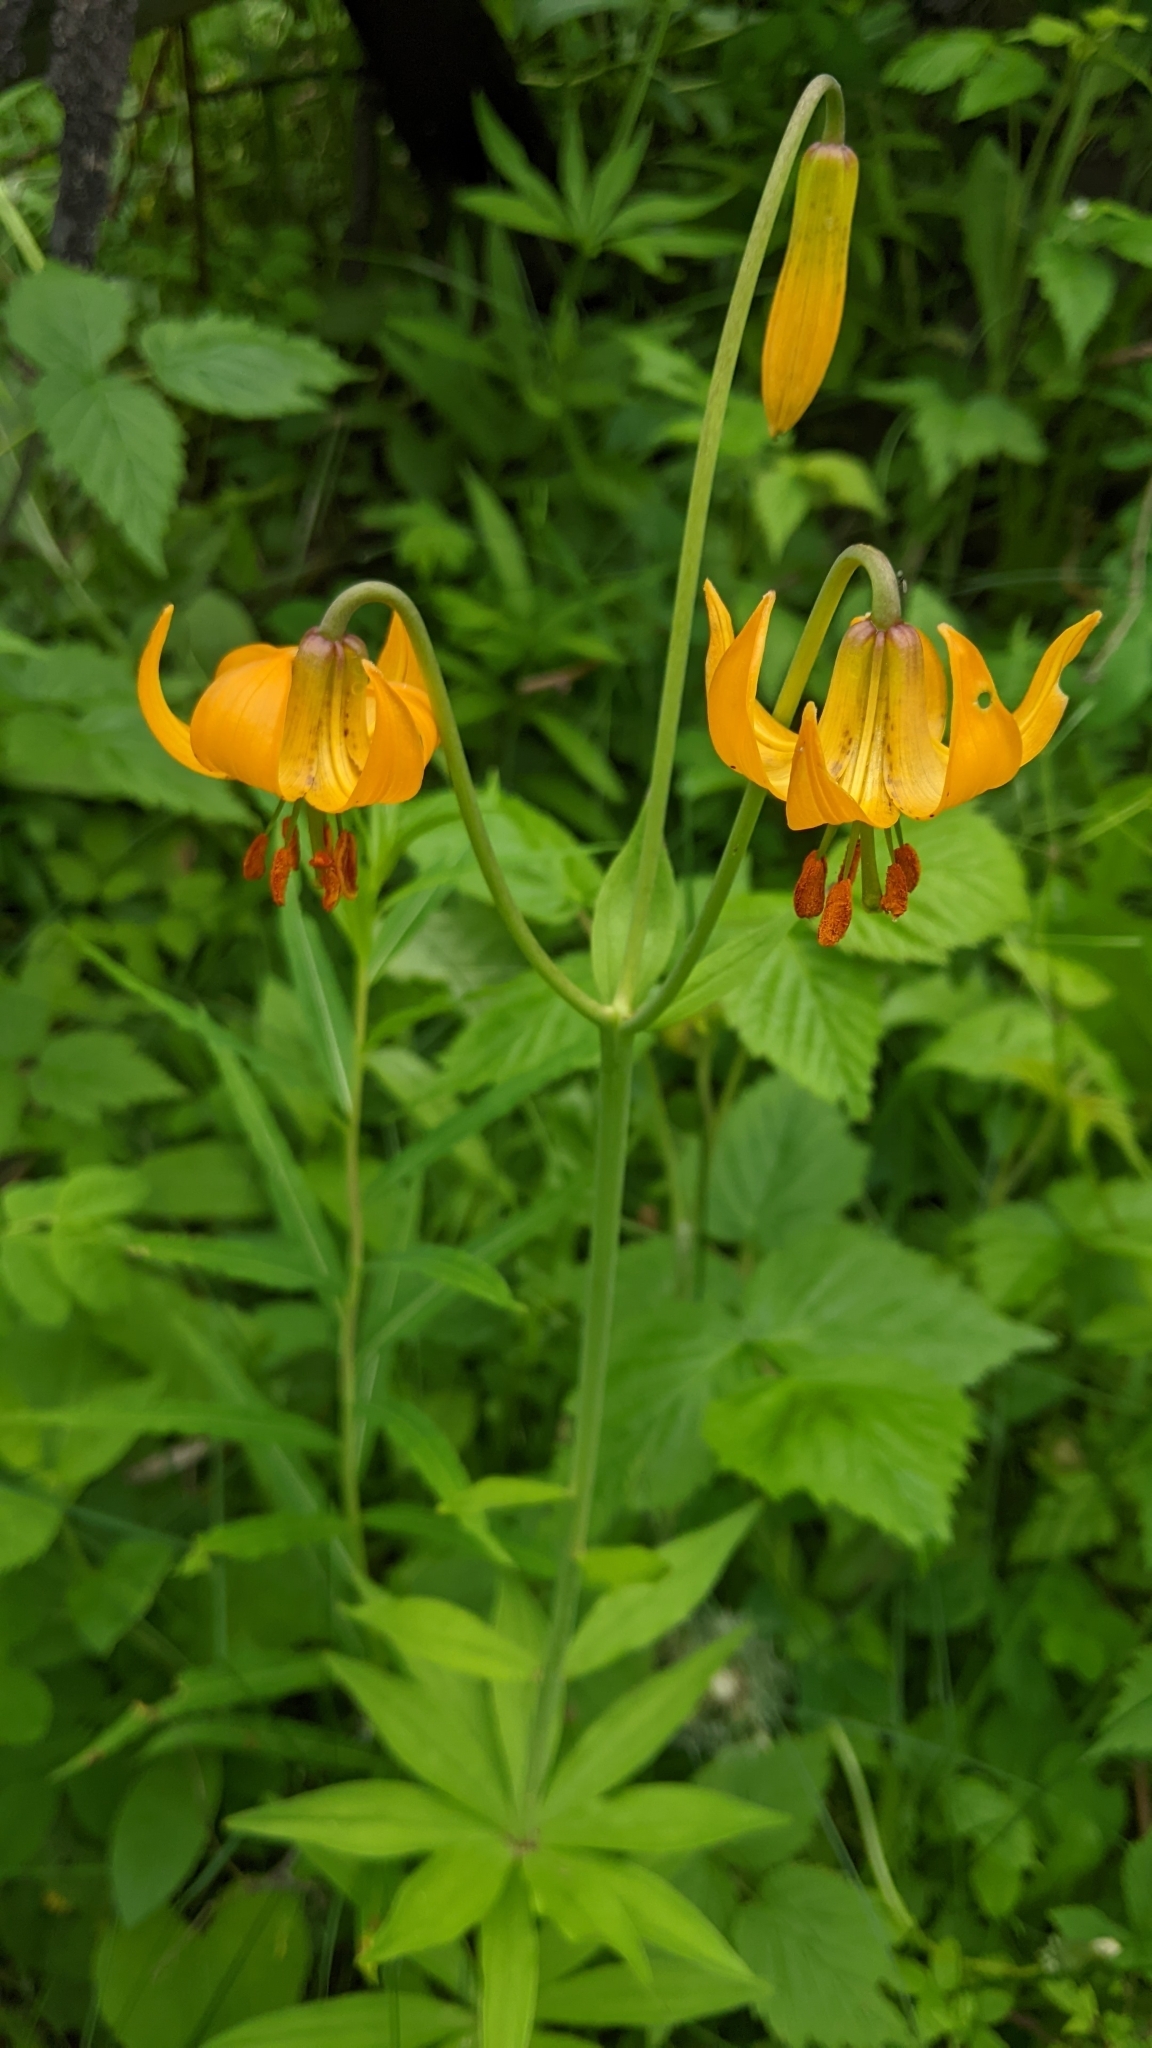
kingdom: Plantae
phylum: Tracheophyta
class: Liliopsida
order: Liliales
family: Liliaceae
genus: Lilium
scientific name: Lilium columbianum
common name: Columbia lily
